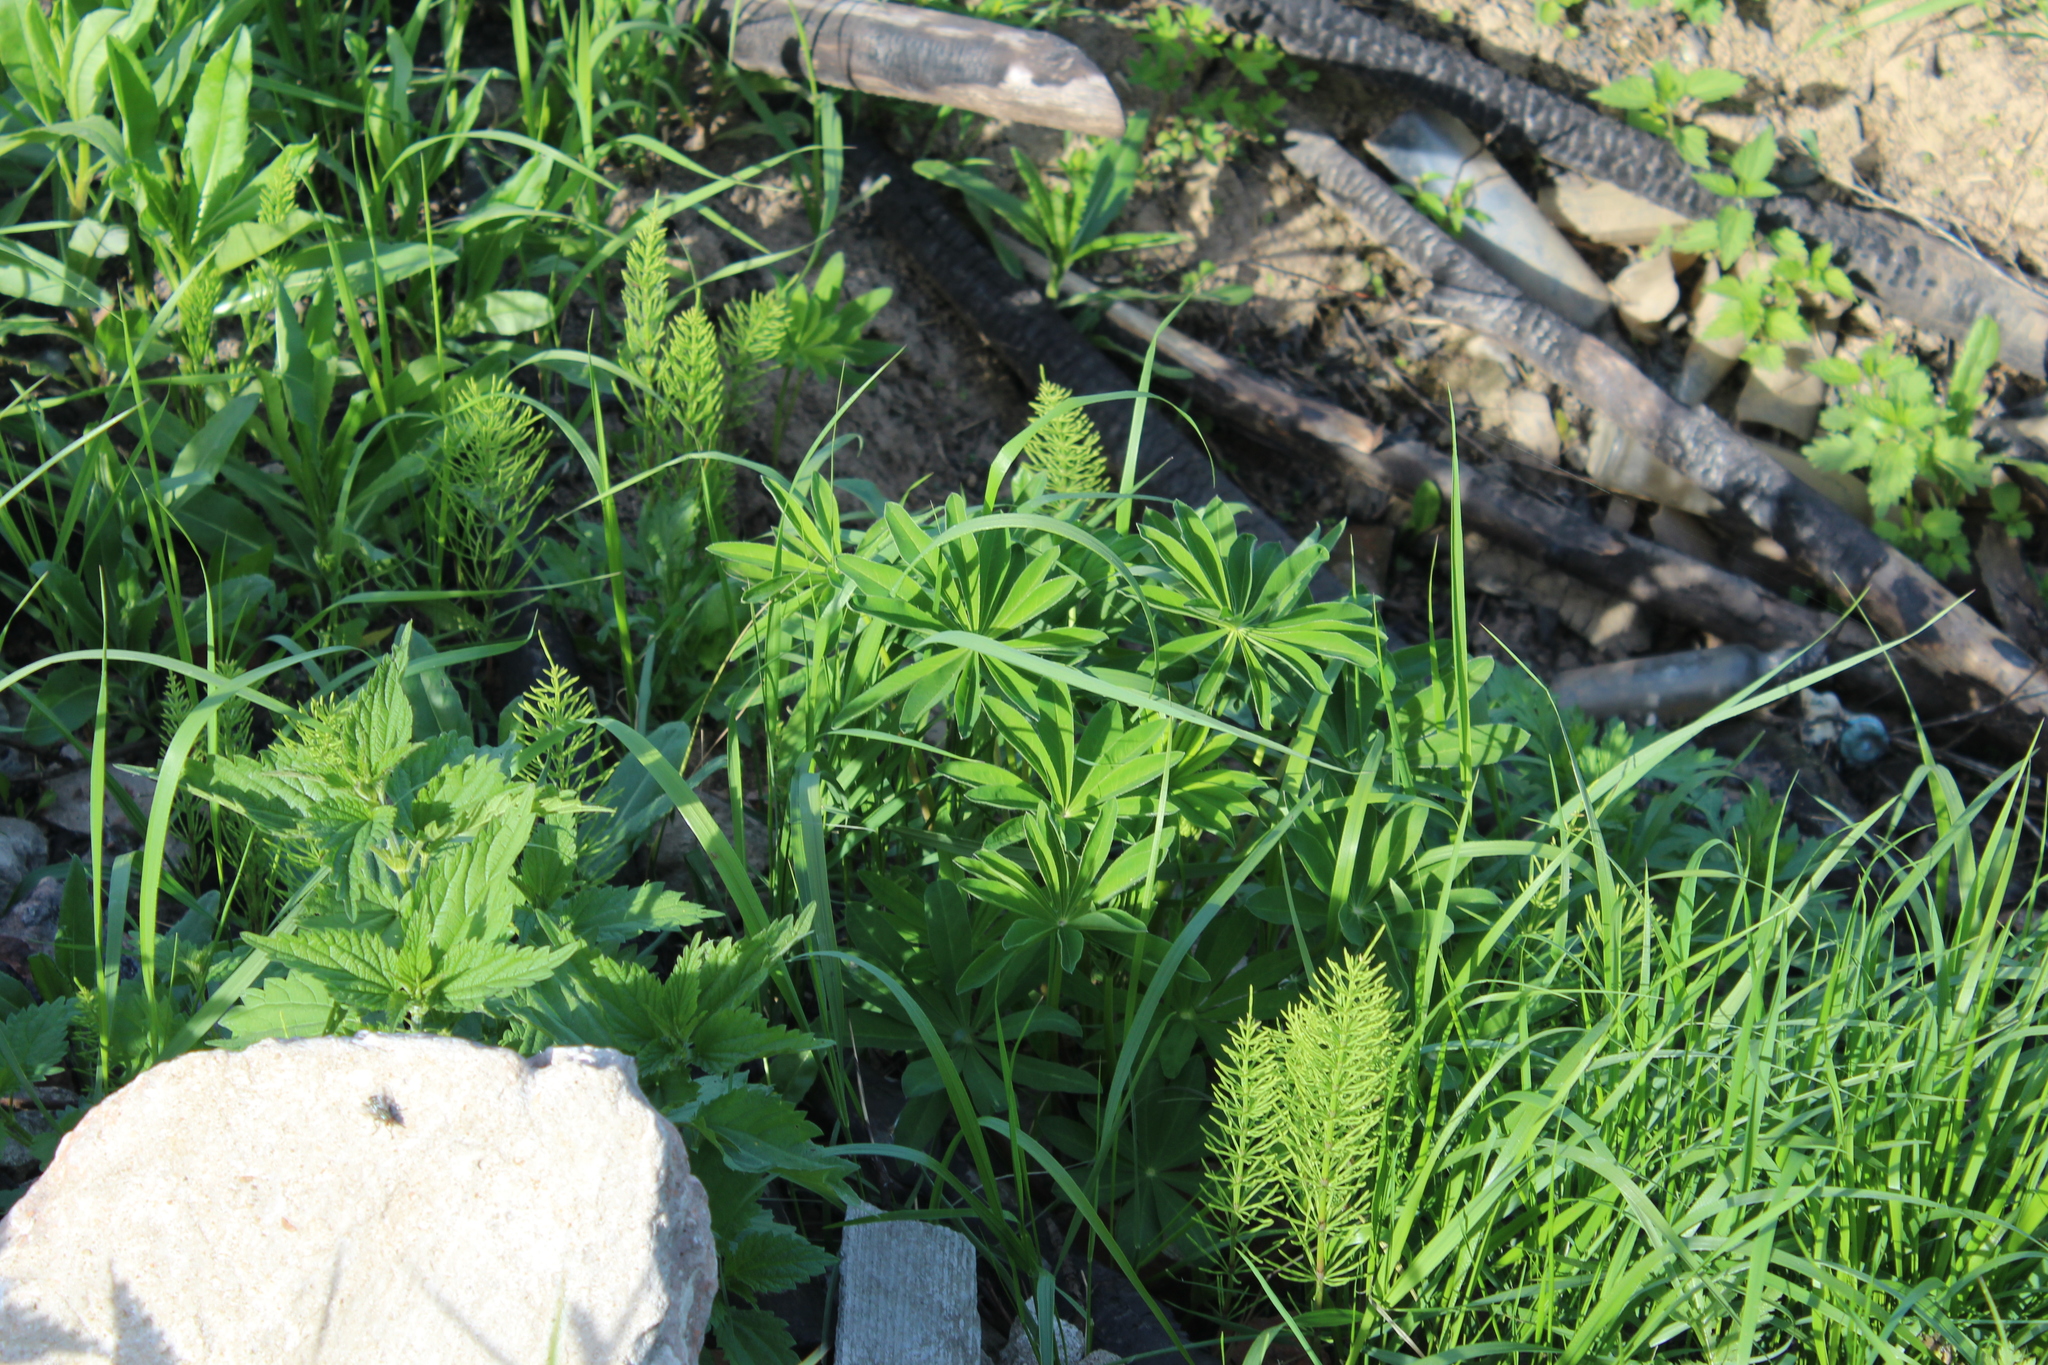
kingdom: Plantae
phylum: Tracheophyta
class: Magnoliopsida
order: Fabales
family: Fabaceae
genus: Lupinus
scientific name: Lupinus polyphyllus
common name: Garden lupin
